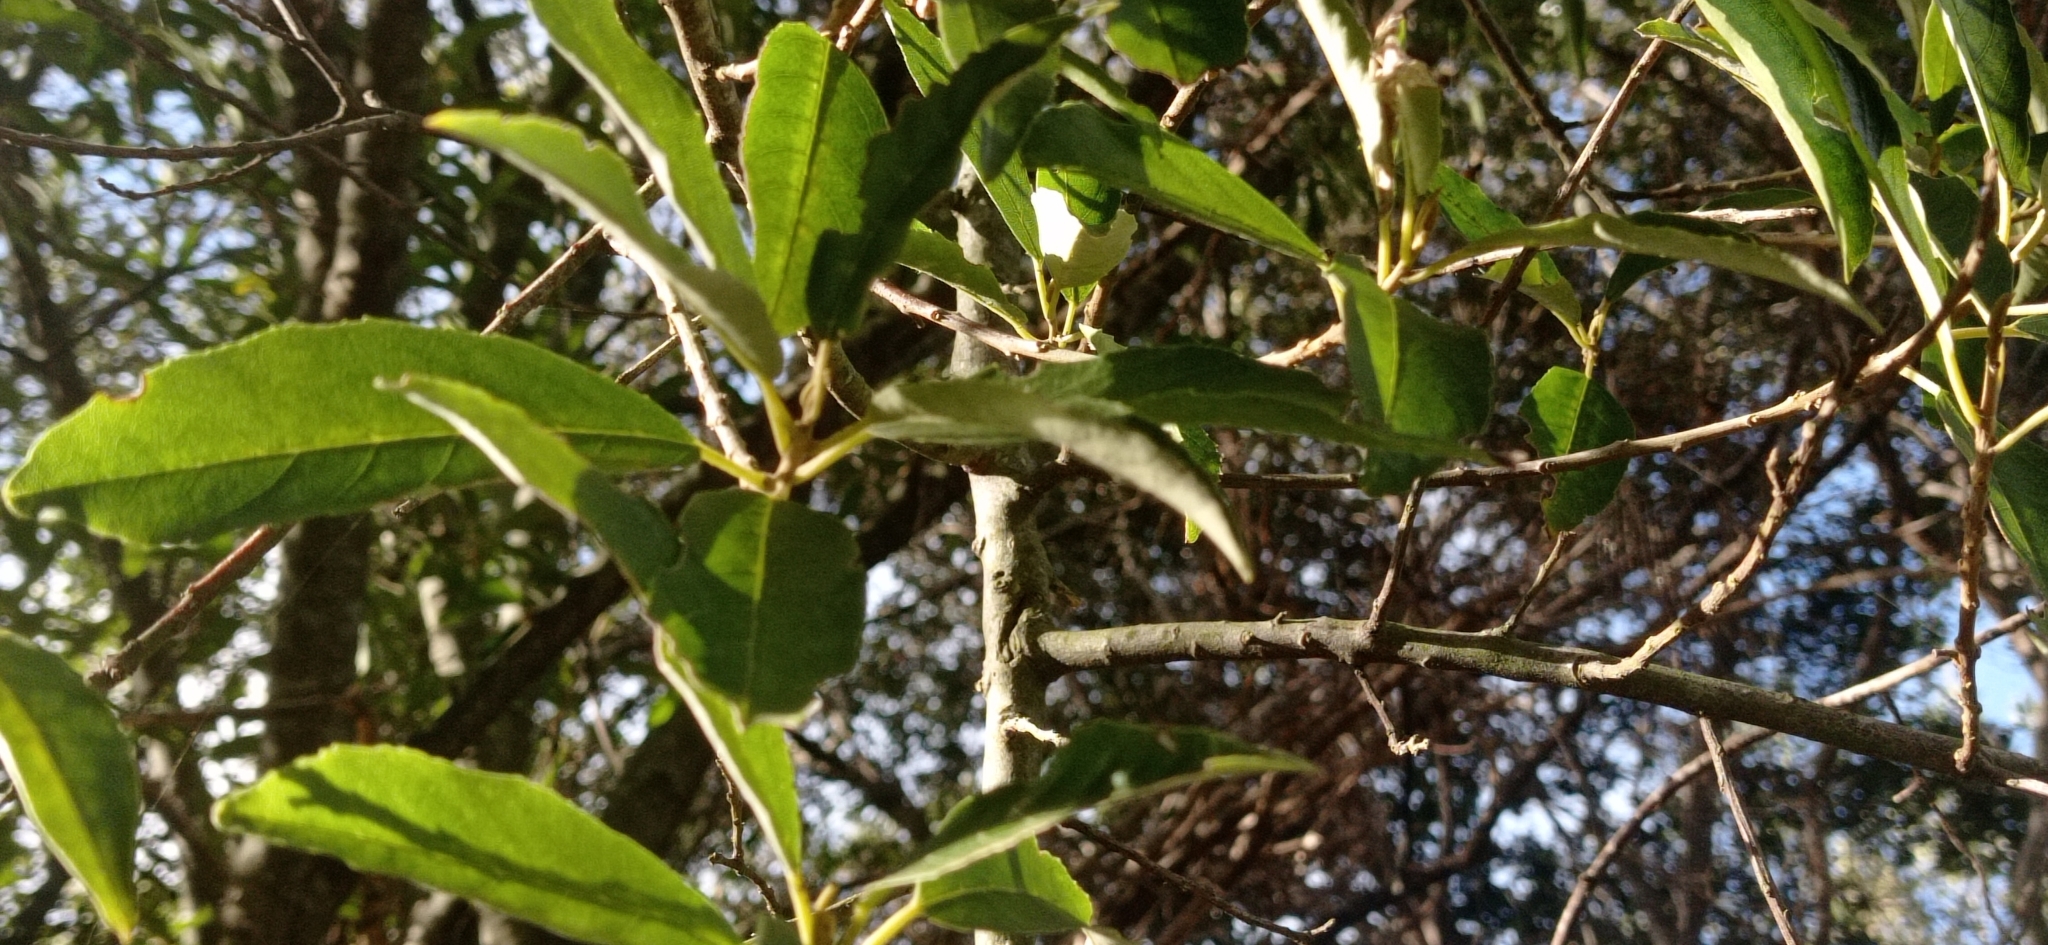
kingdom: Plantae
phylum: Tracheophyta
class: Magnoliopsida
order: Malpighiales
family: Achariaceae
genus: Kiggelaria
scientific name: Kiggelaria africana
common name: Wild peach
